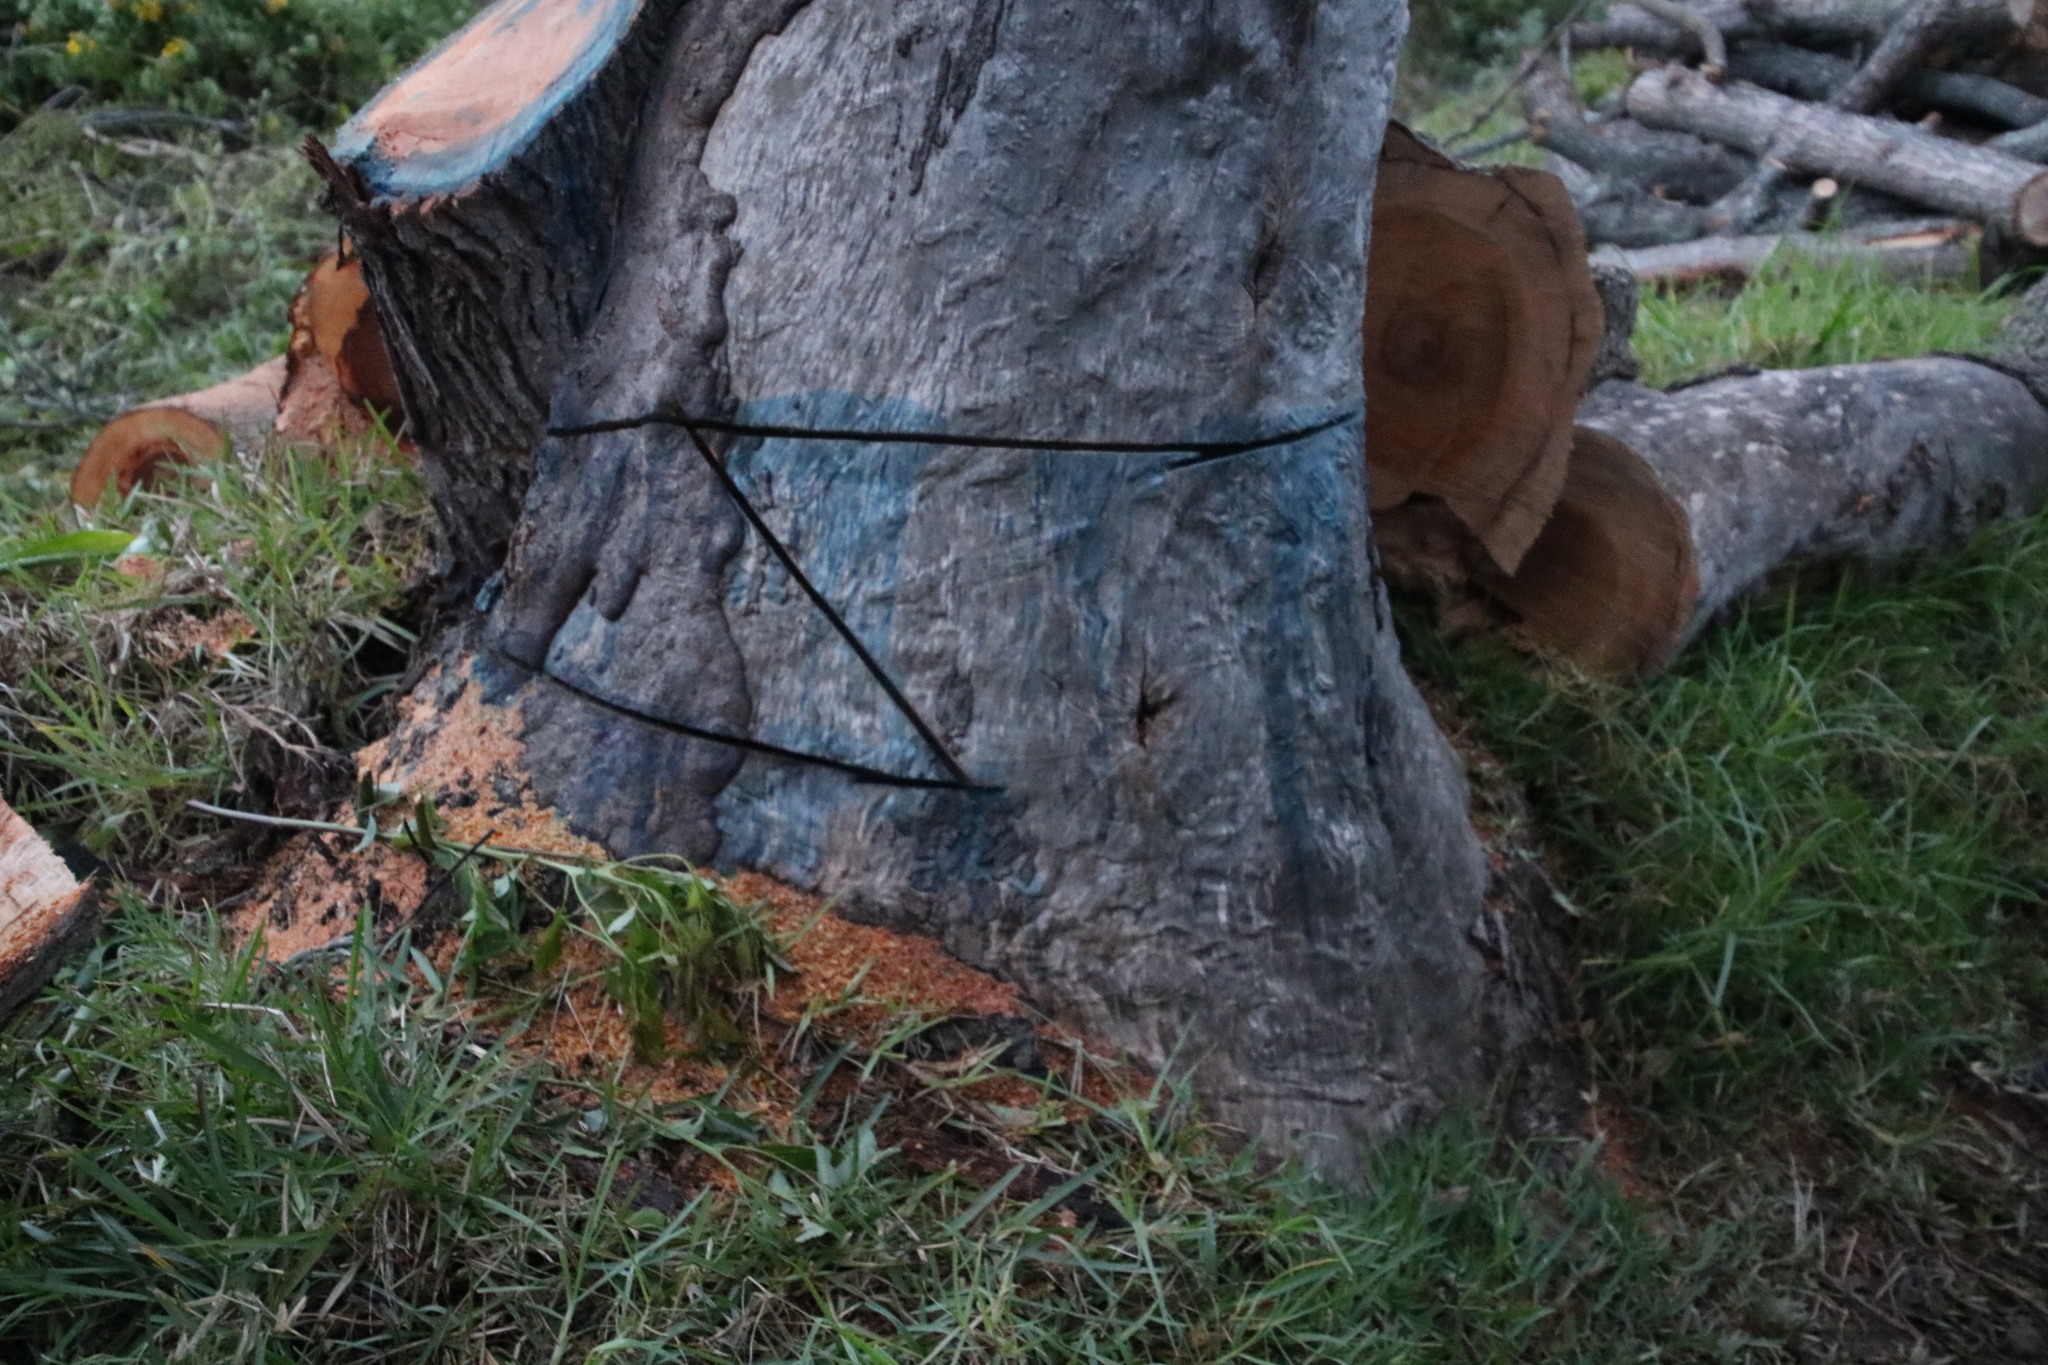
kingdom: Plantae
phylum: Tracheophyta
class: Magnoliopsida
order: Laurales
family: Lauraceae
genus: Cinnamomum
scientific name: Cinnamomum camphora
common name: Camphortree
